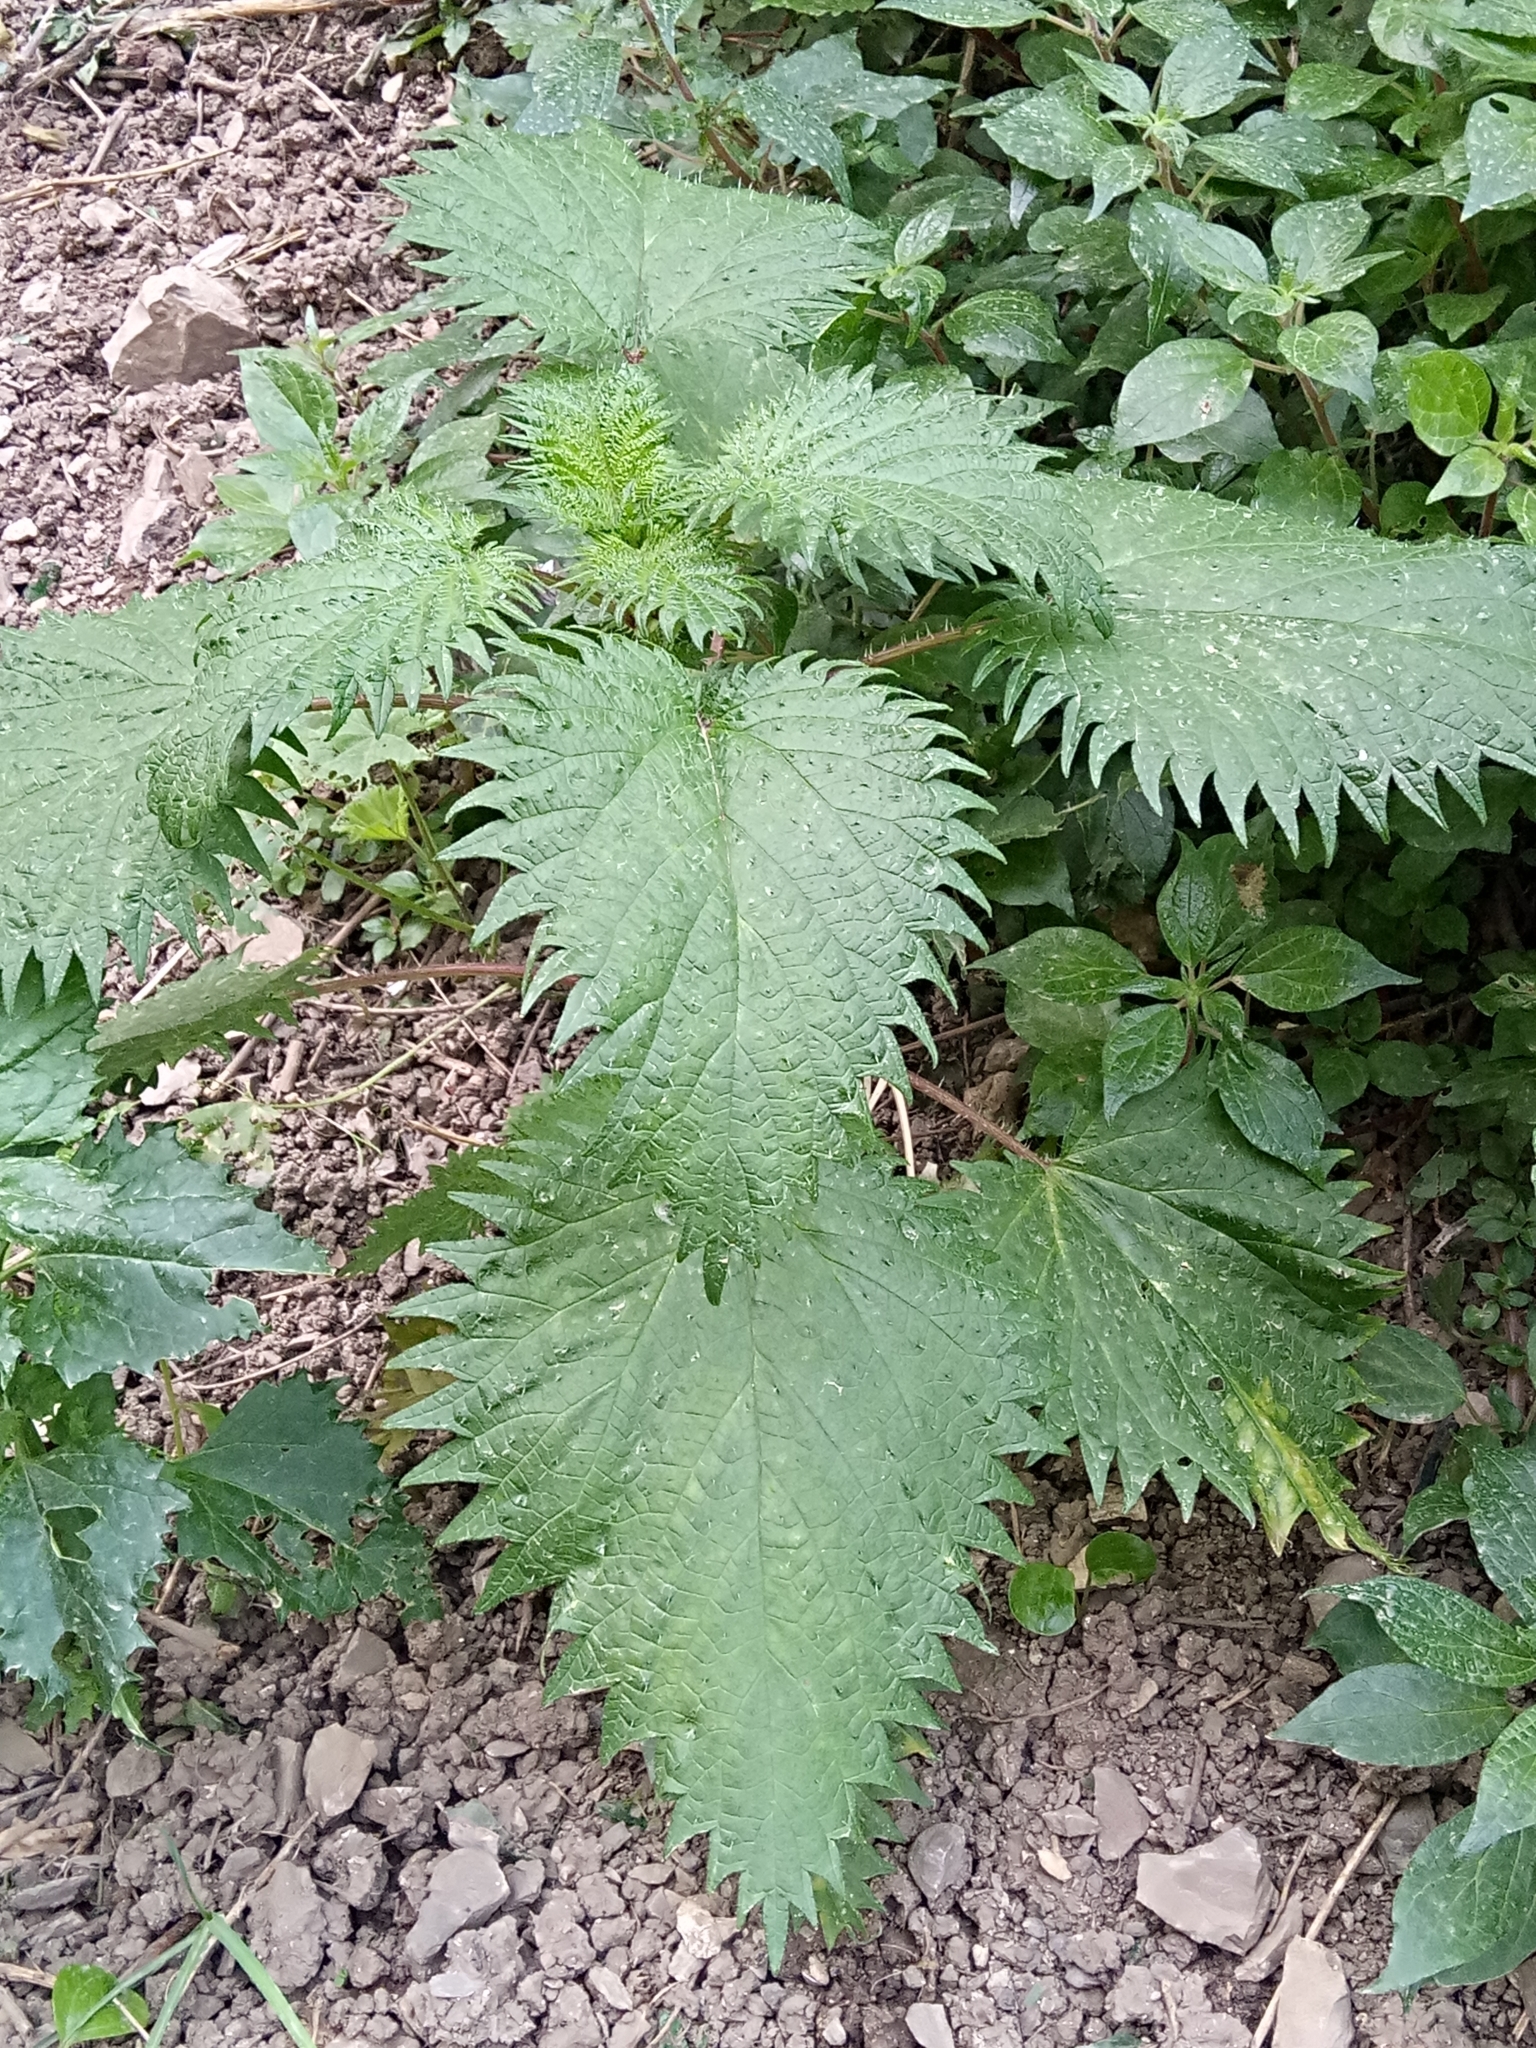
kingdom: Plantae
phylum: Tracheophyta
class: Magnoliopsida
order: Rosales
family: Urticaceae
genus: Urtica
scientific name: Urtica pilulifera
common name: Roman nettle
